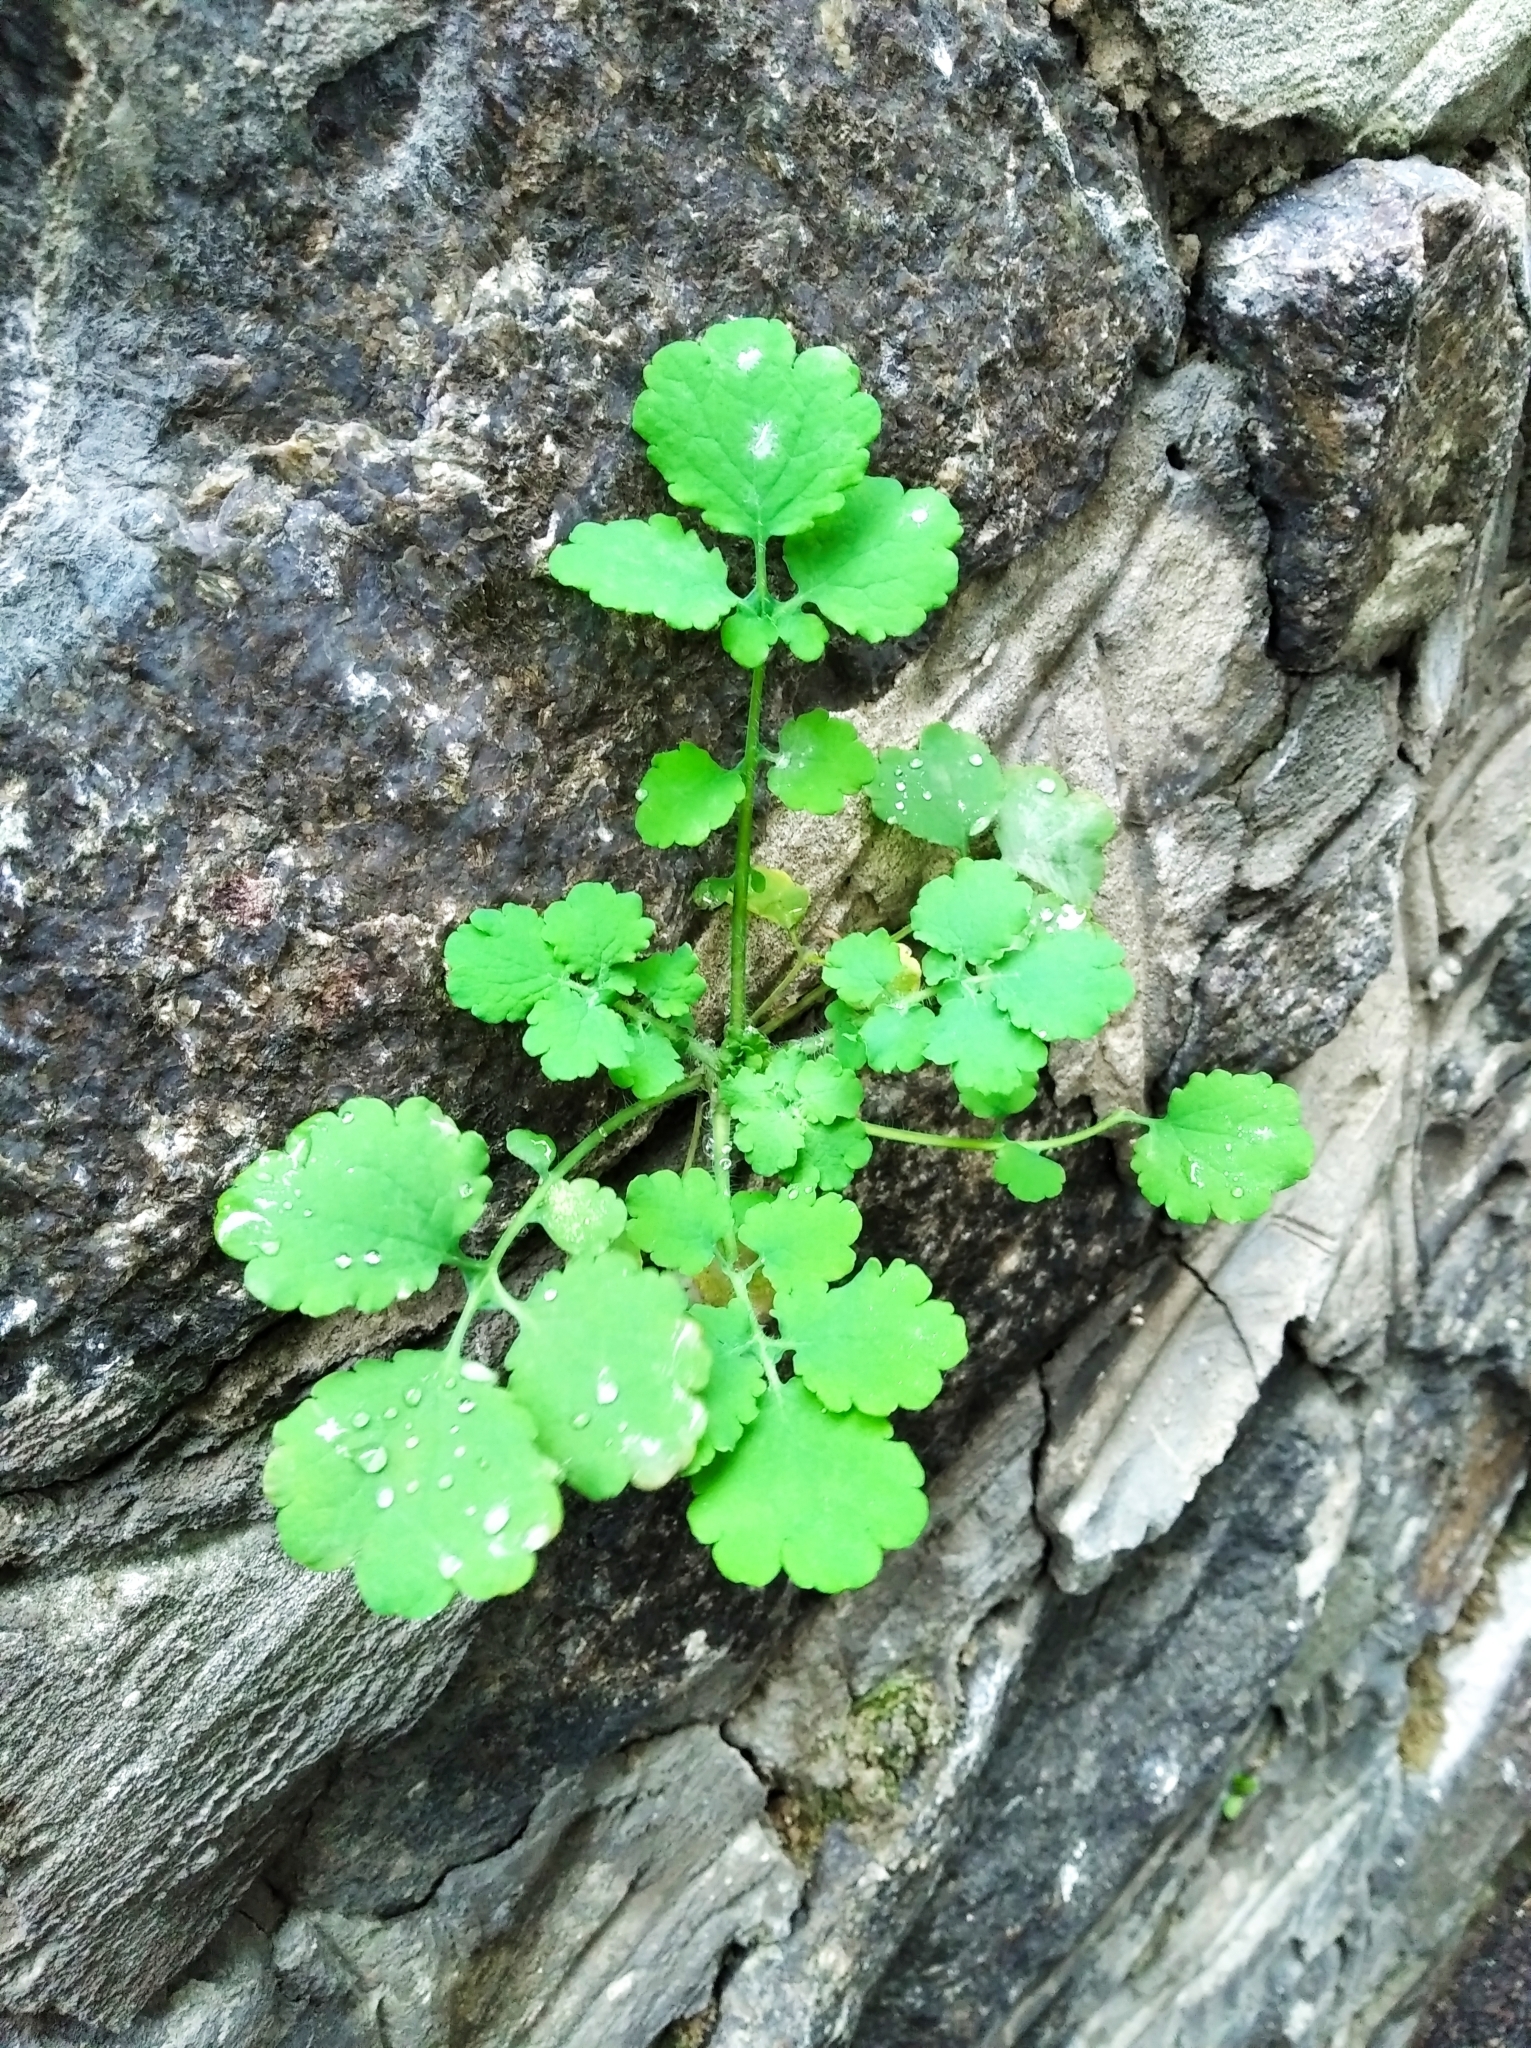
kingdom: Plantae
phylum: Tracheophyta
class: Magnoliopsida
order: Ranunculales
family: Papaveraceae
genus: Chelidonium
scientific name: Chelidonium majus
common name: Greater celandine
